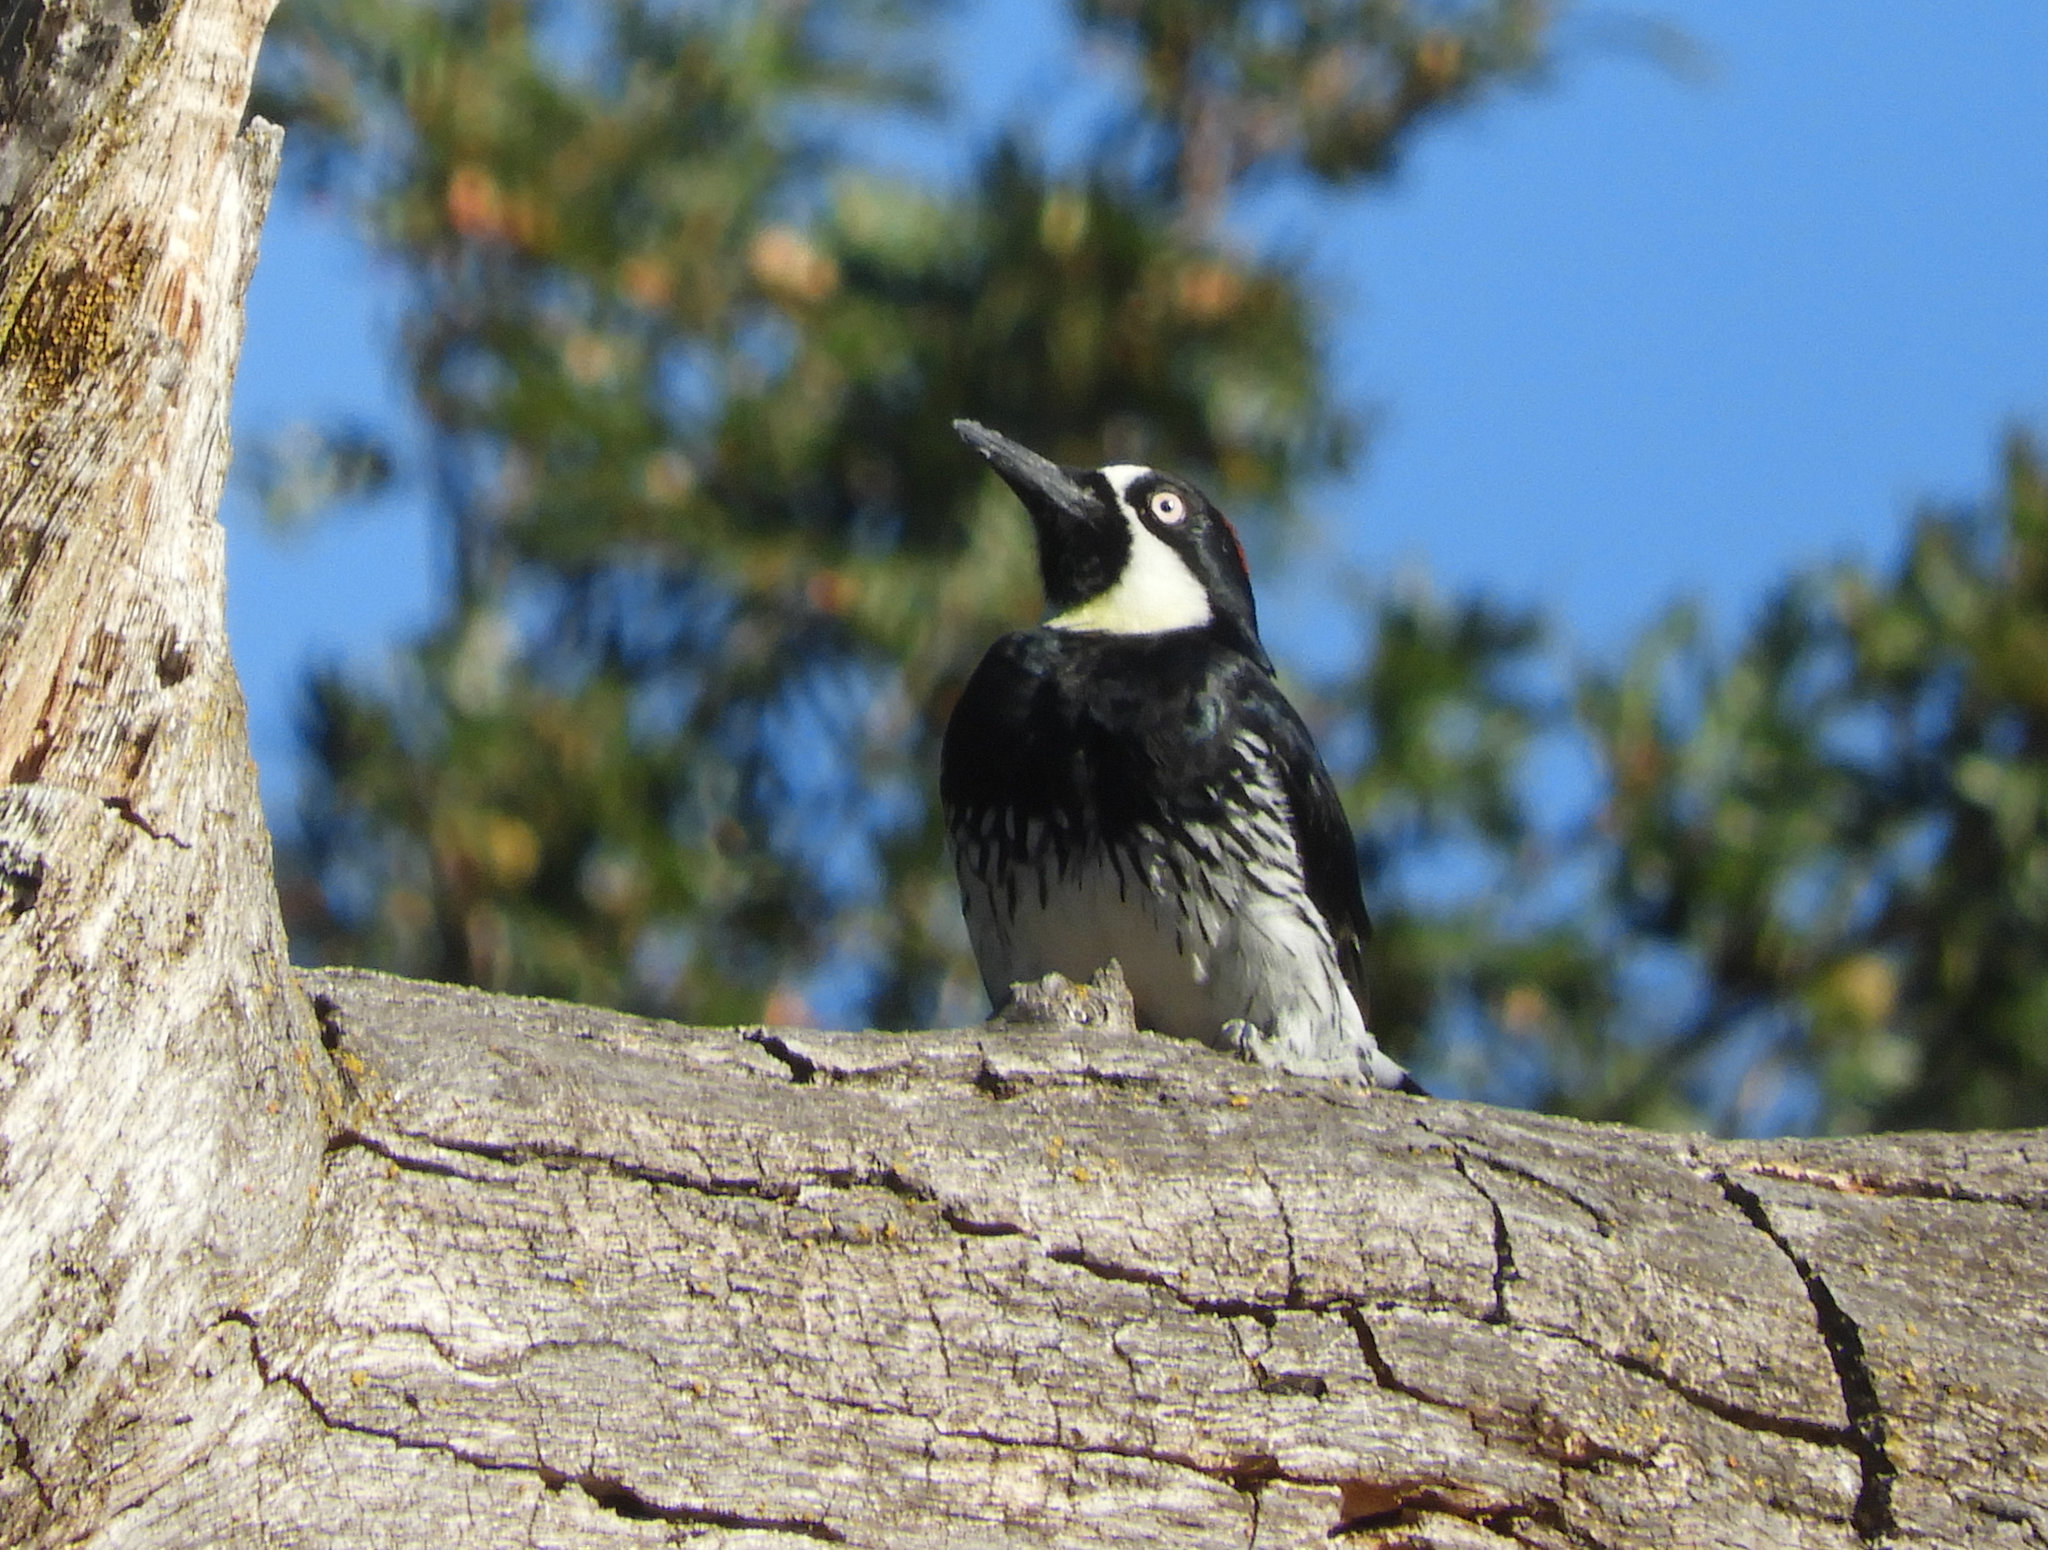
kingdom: Animalia
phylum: Chordata
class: Aves
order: Piciformes
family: Picidae
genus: Melanerpes
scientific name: Melanerpes formicivorus
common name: Acorn woodpecker
